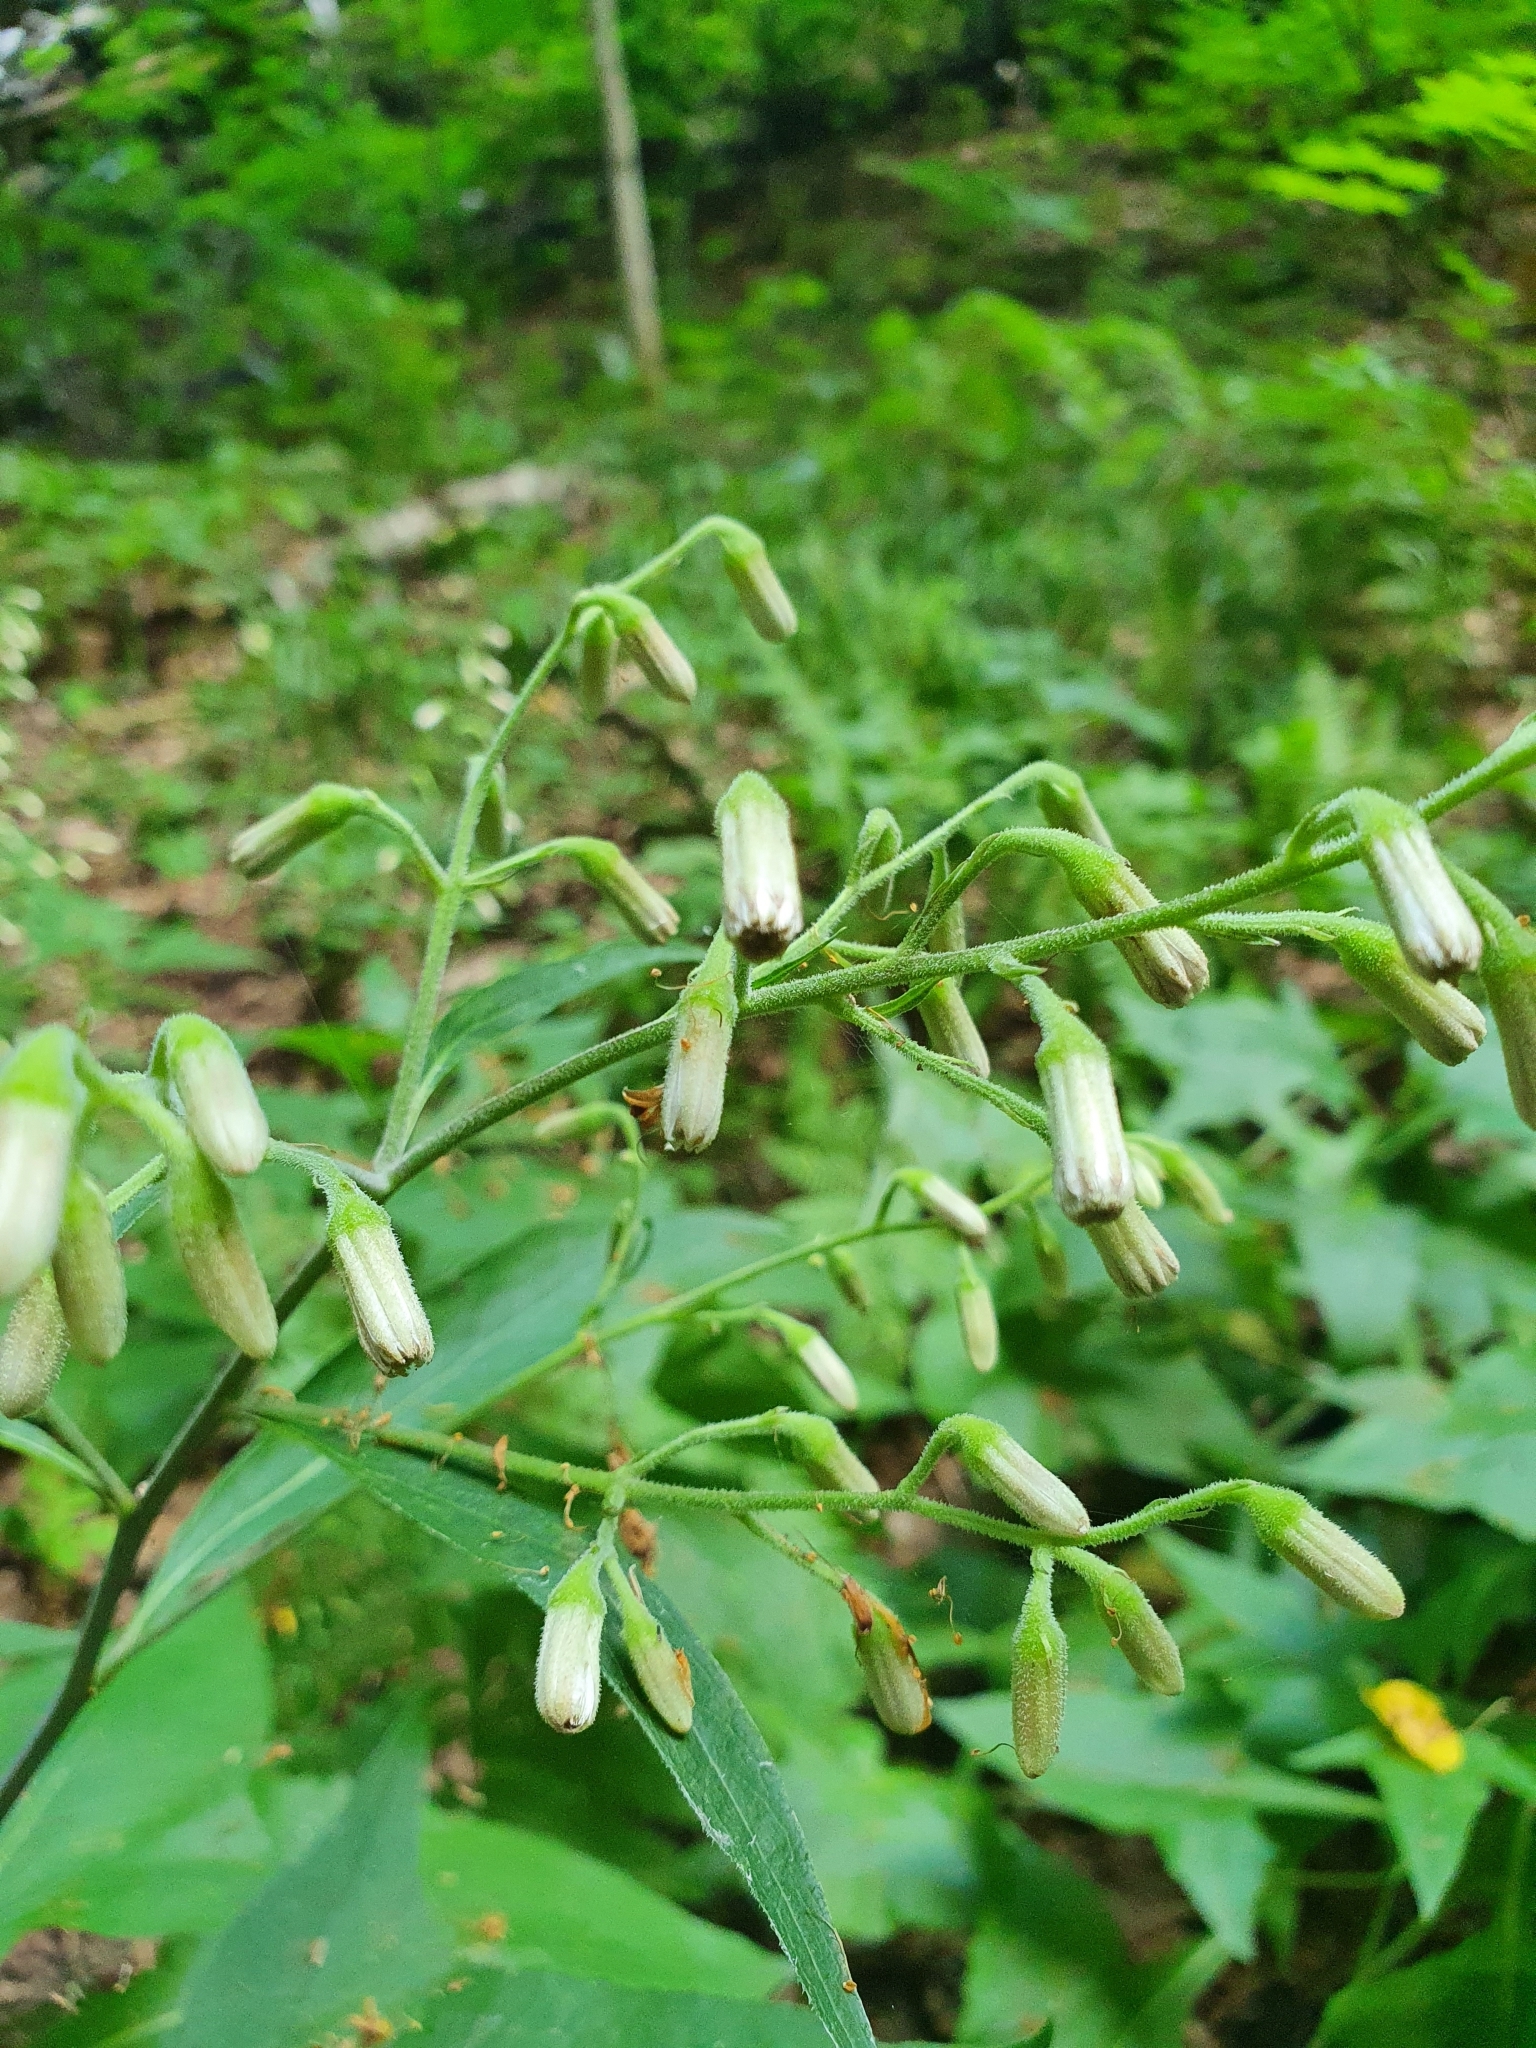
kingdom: Plantae
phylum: Tracheophyta
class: Magnoliopsida
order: Asterales
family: Asteraceae
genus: Parasenecio
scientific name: Parasenecio hastatus
